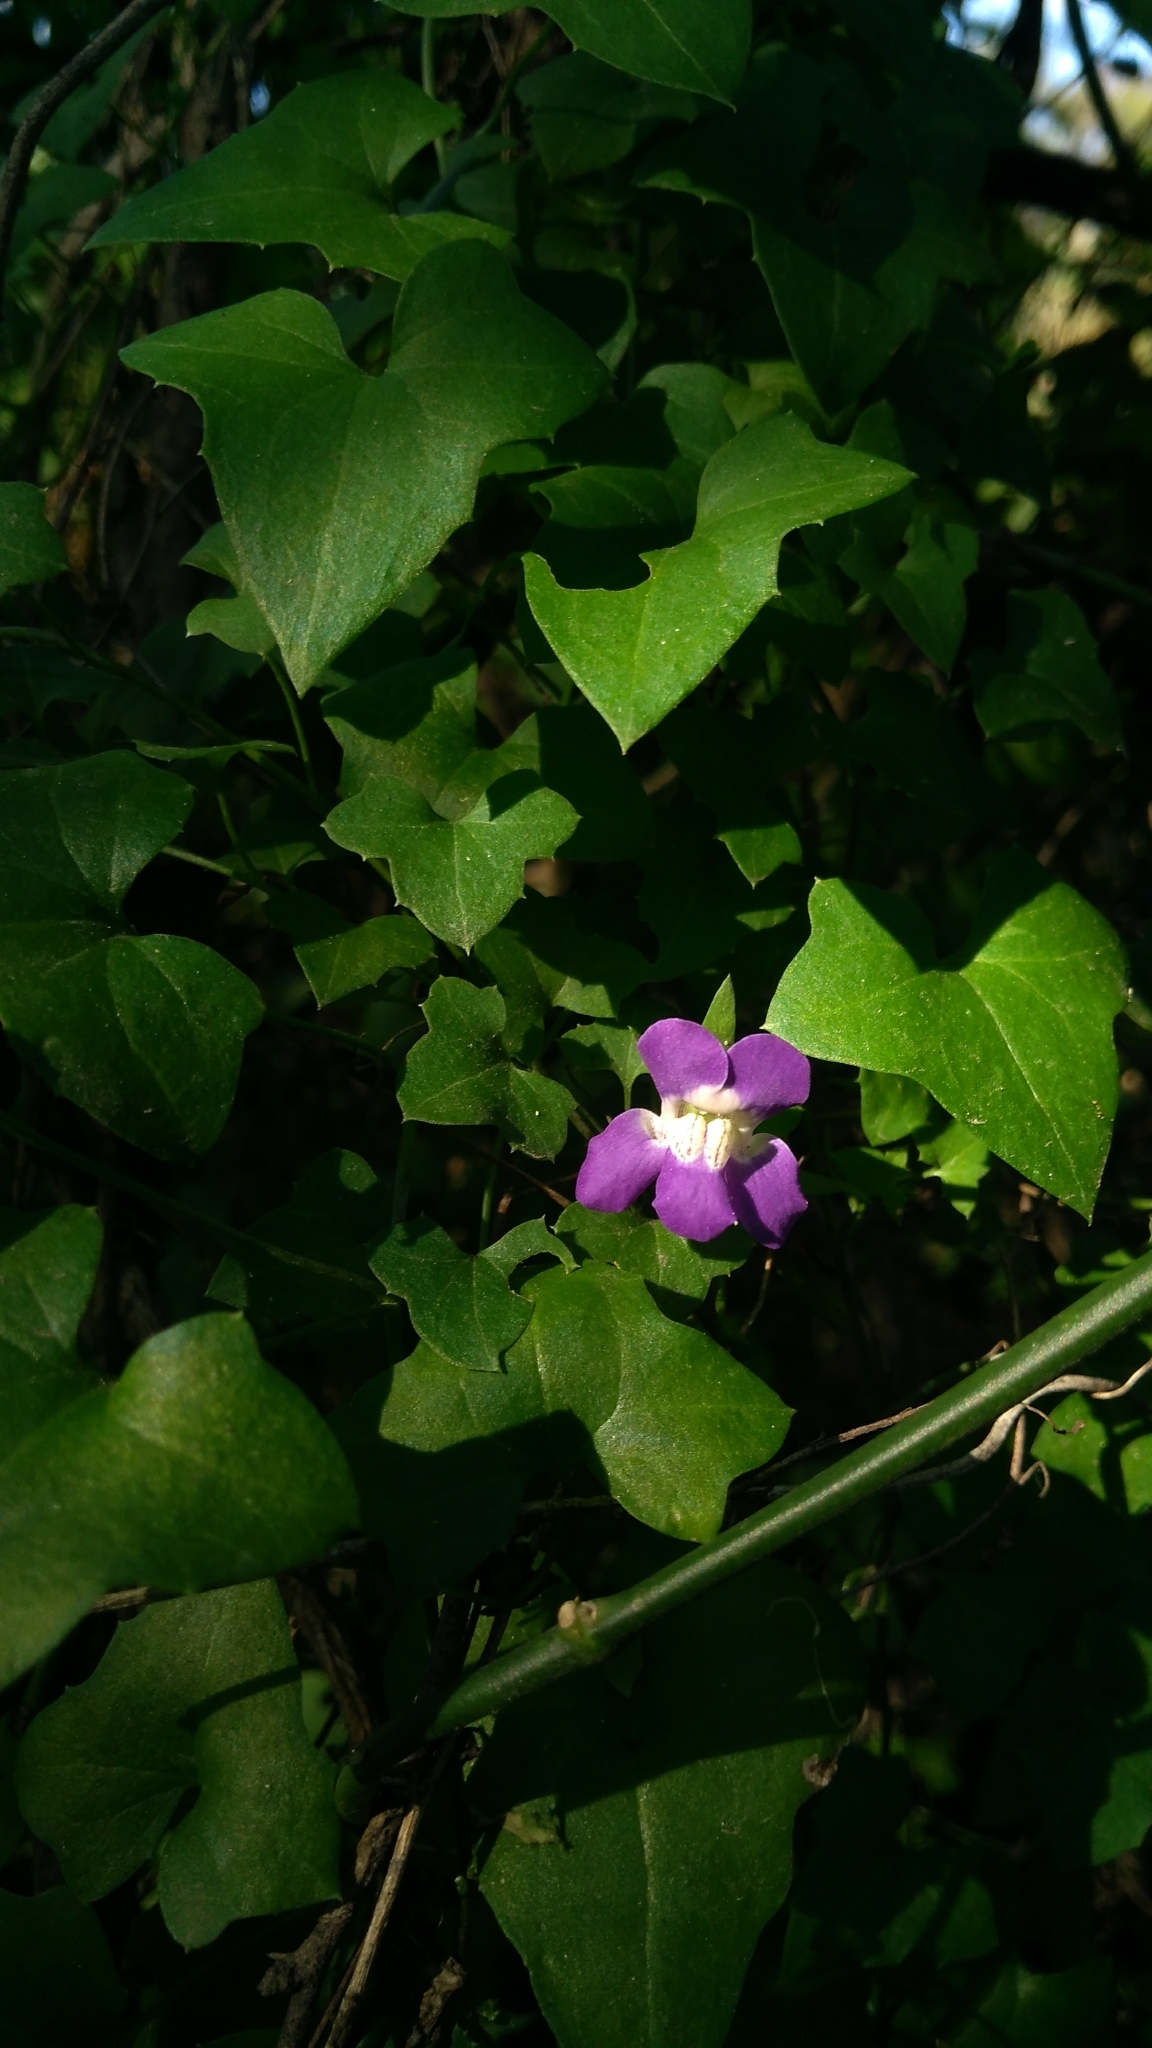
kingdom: Plantae
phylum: Tracheophyta
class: Magnoliopsida
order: Lamiales
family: Plantaginaceae
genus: Maurandella
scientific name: Maurandella antirrhiniflora
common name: Violet twining-snapdragon
